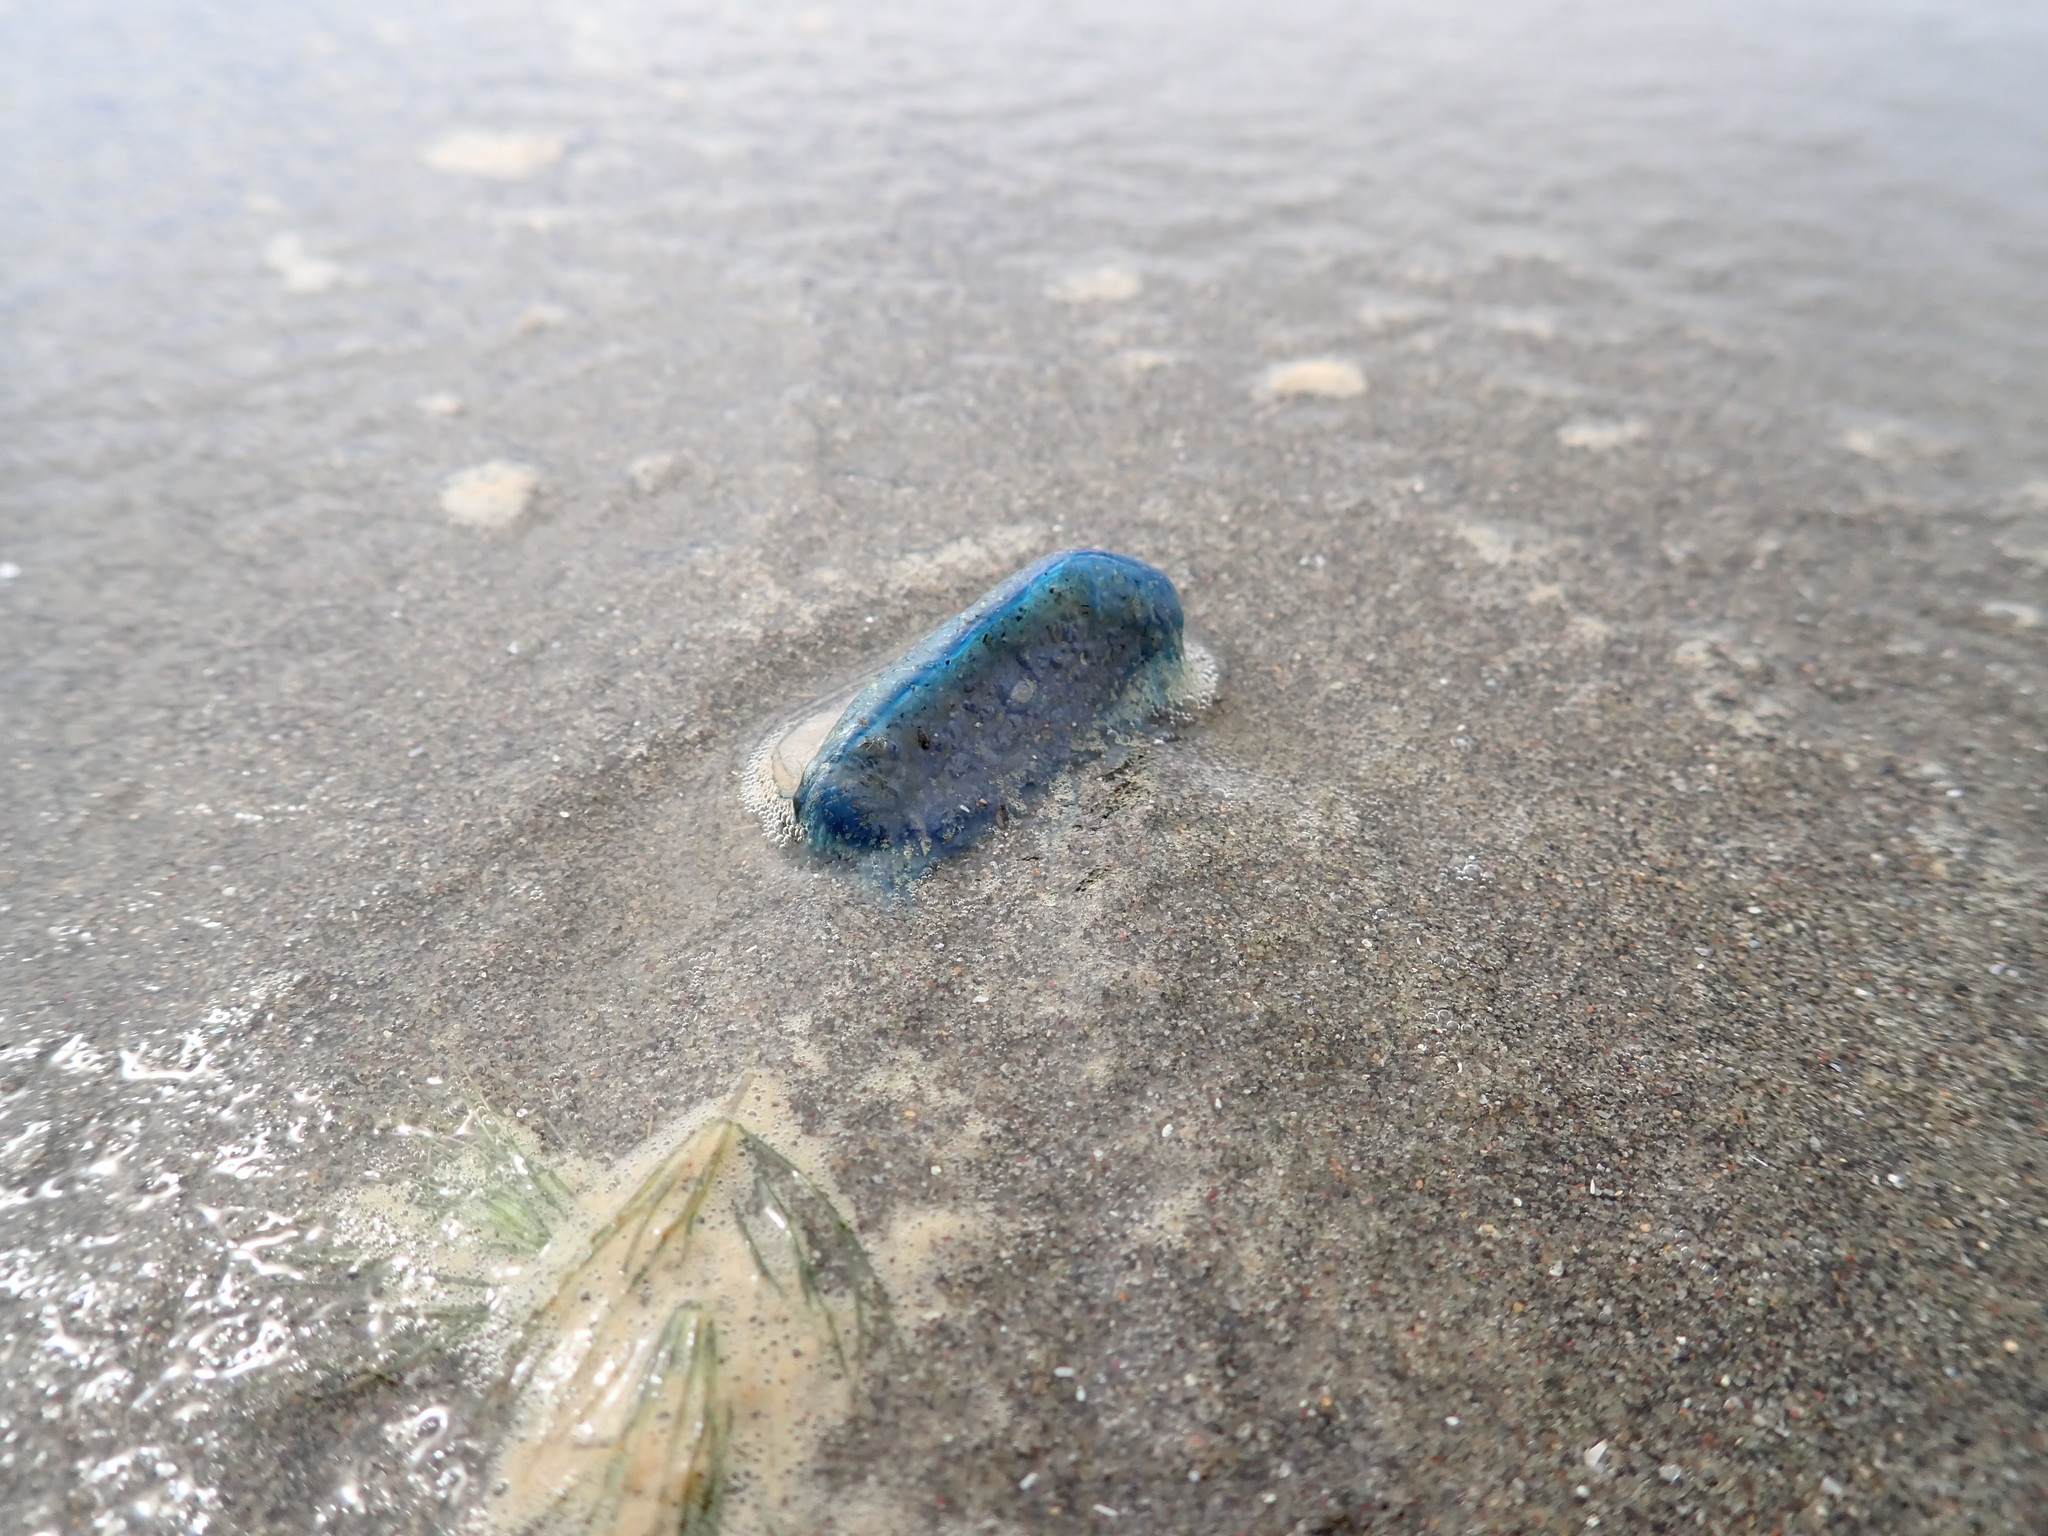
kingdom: Animalia
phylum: Cnidaria
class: Hydrozoa
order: Anthoathecata
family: Porpitidae
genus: Velella
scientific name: Velella velella
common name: By-the-wind-sailor
